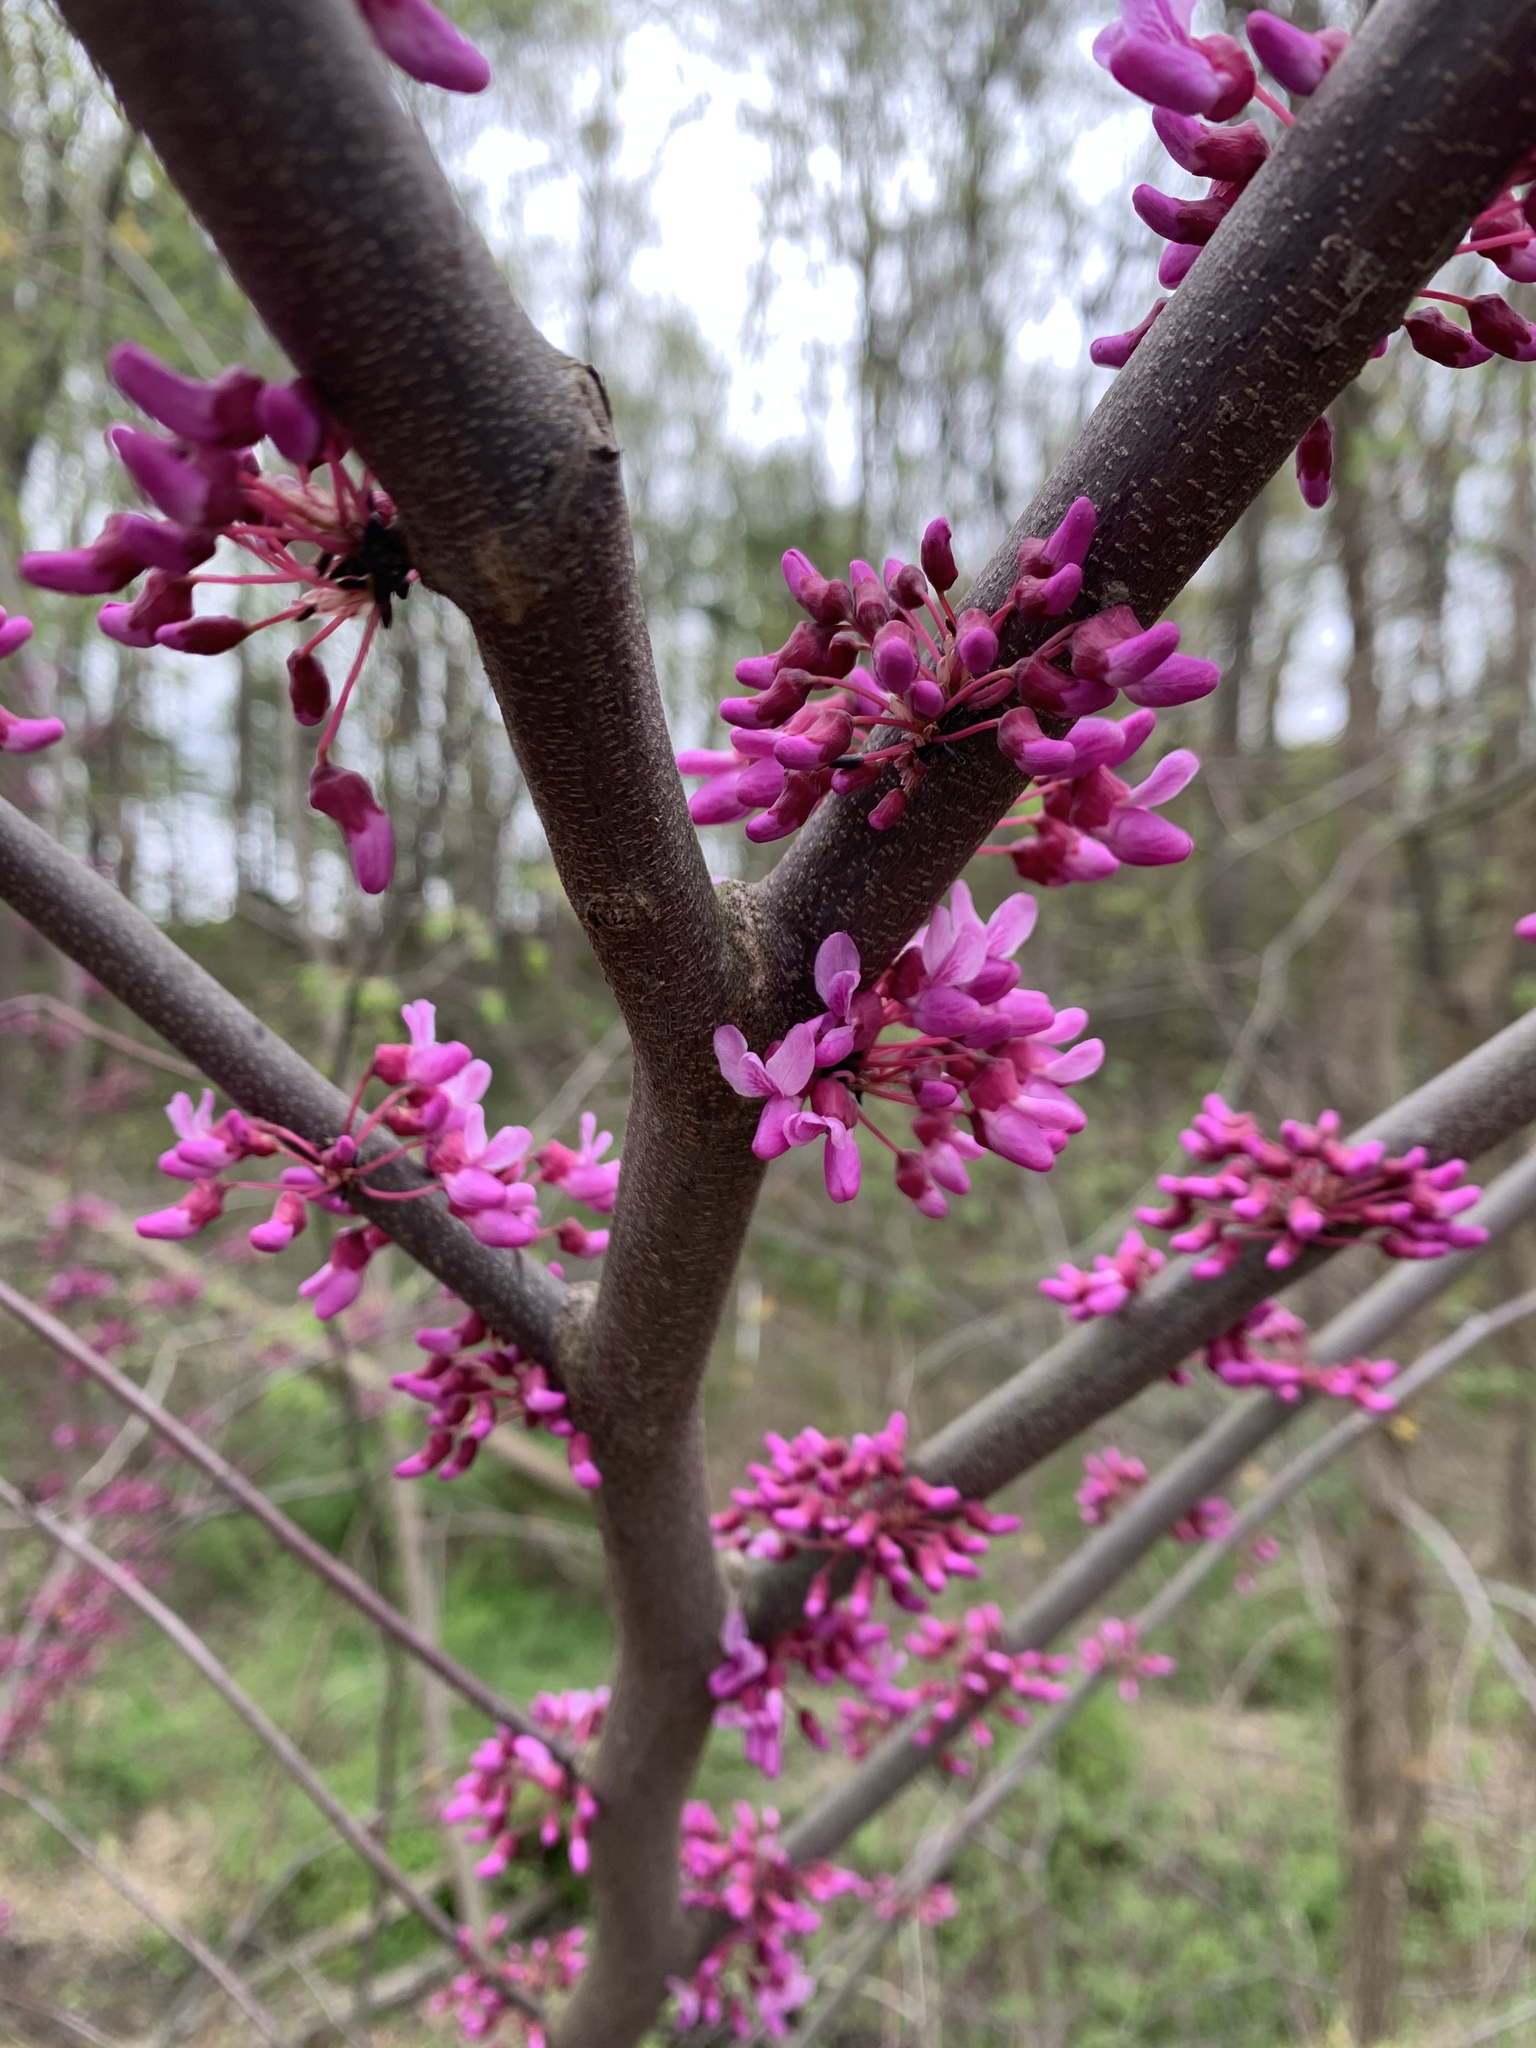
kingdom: Plantae
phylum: Tracheophyta
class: Magnoliopsida
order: Fabales
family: Fabaceae
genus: Cercis
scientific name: Cercis canadensis
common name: Eastern redbud
